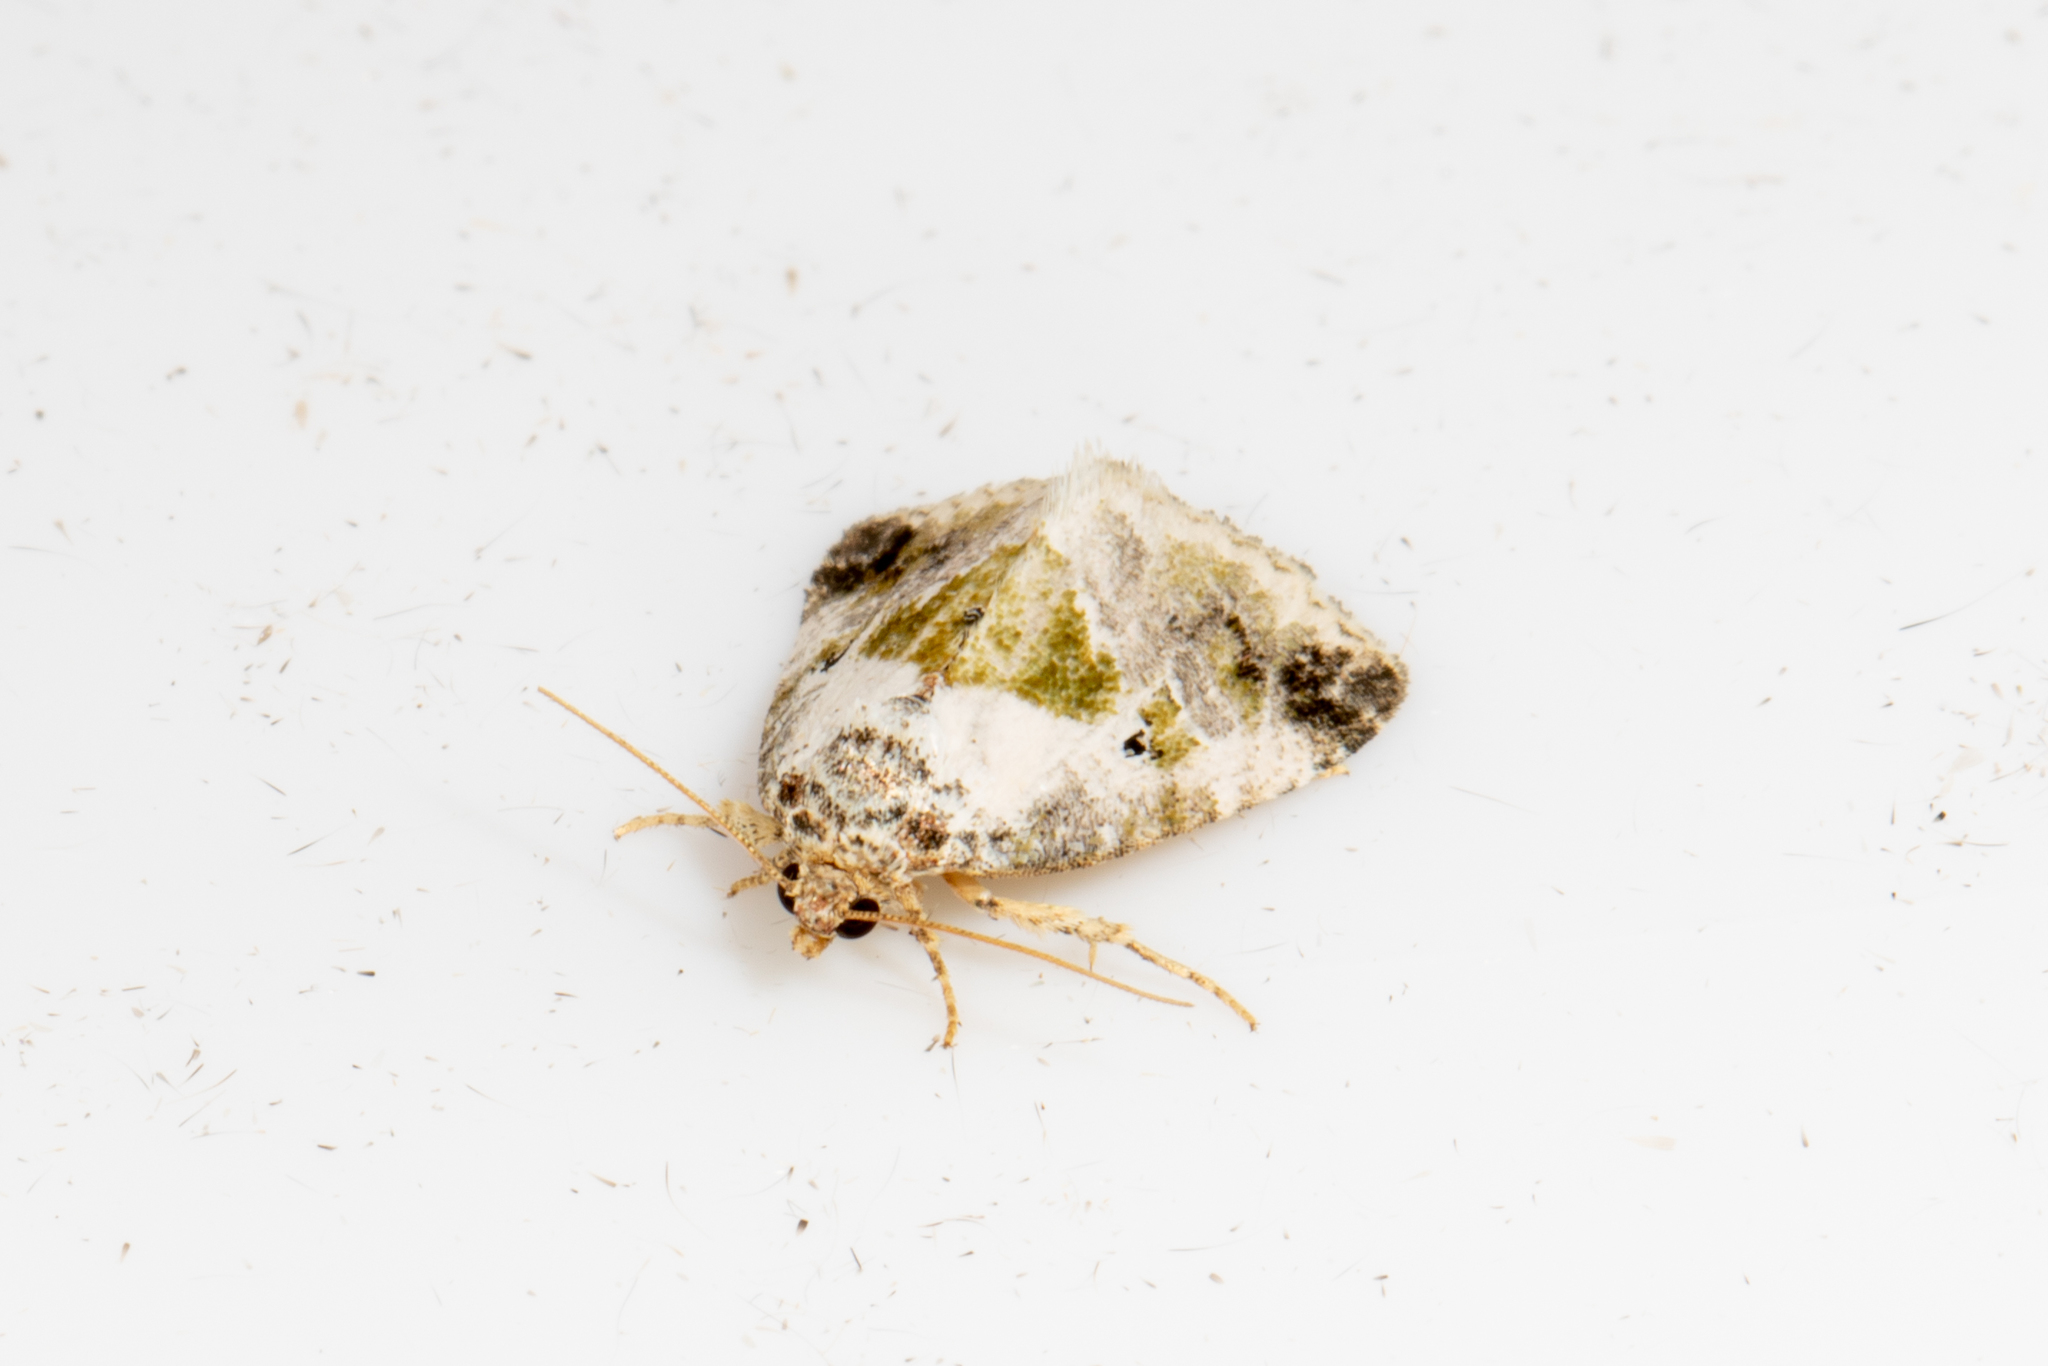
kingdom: Animalia
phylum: Arthropoda
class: Insecta
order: Lepidoptera
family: Noctuidae
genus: Maliattha
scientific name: Maliattha synochitis
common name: Black-dotted glyph
